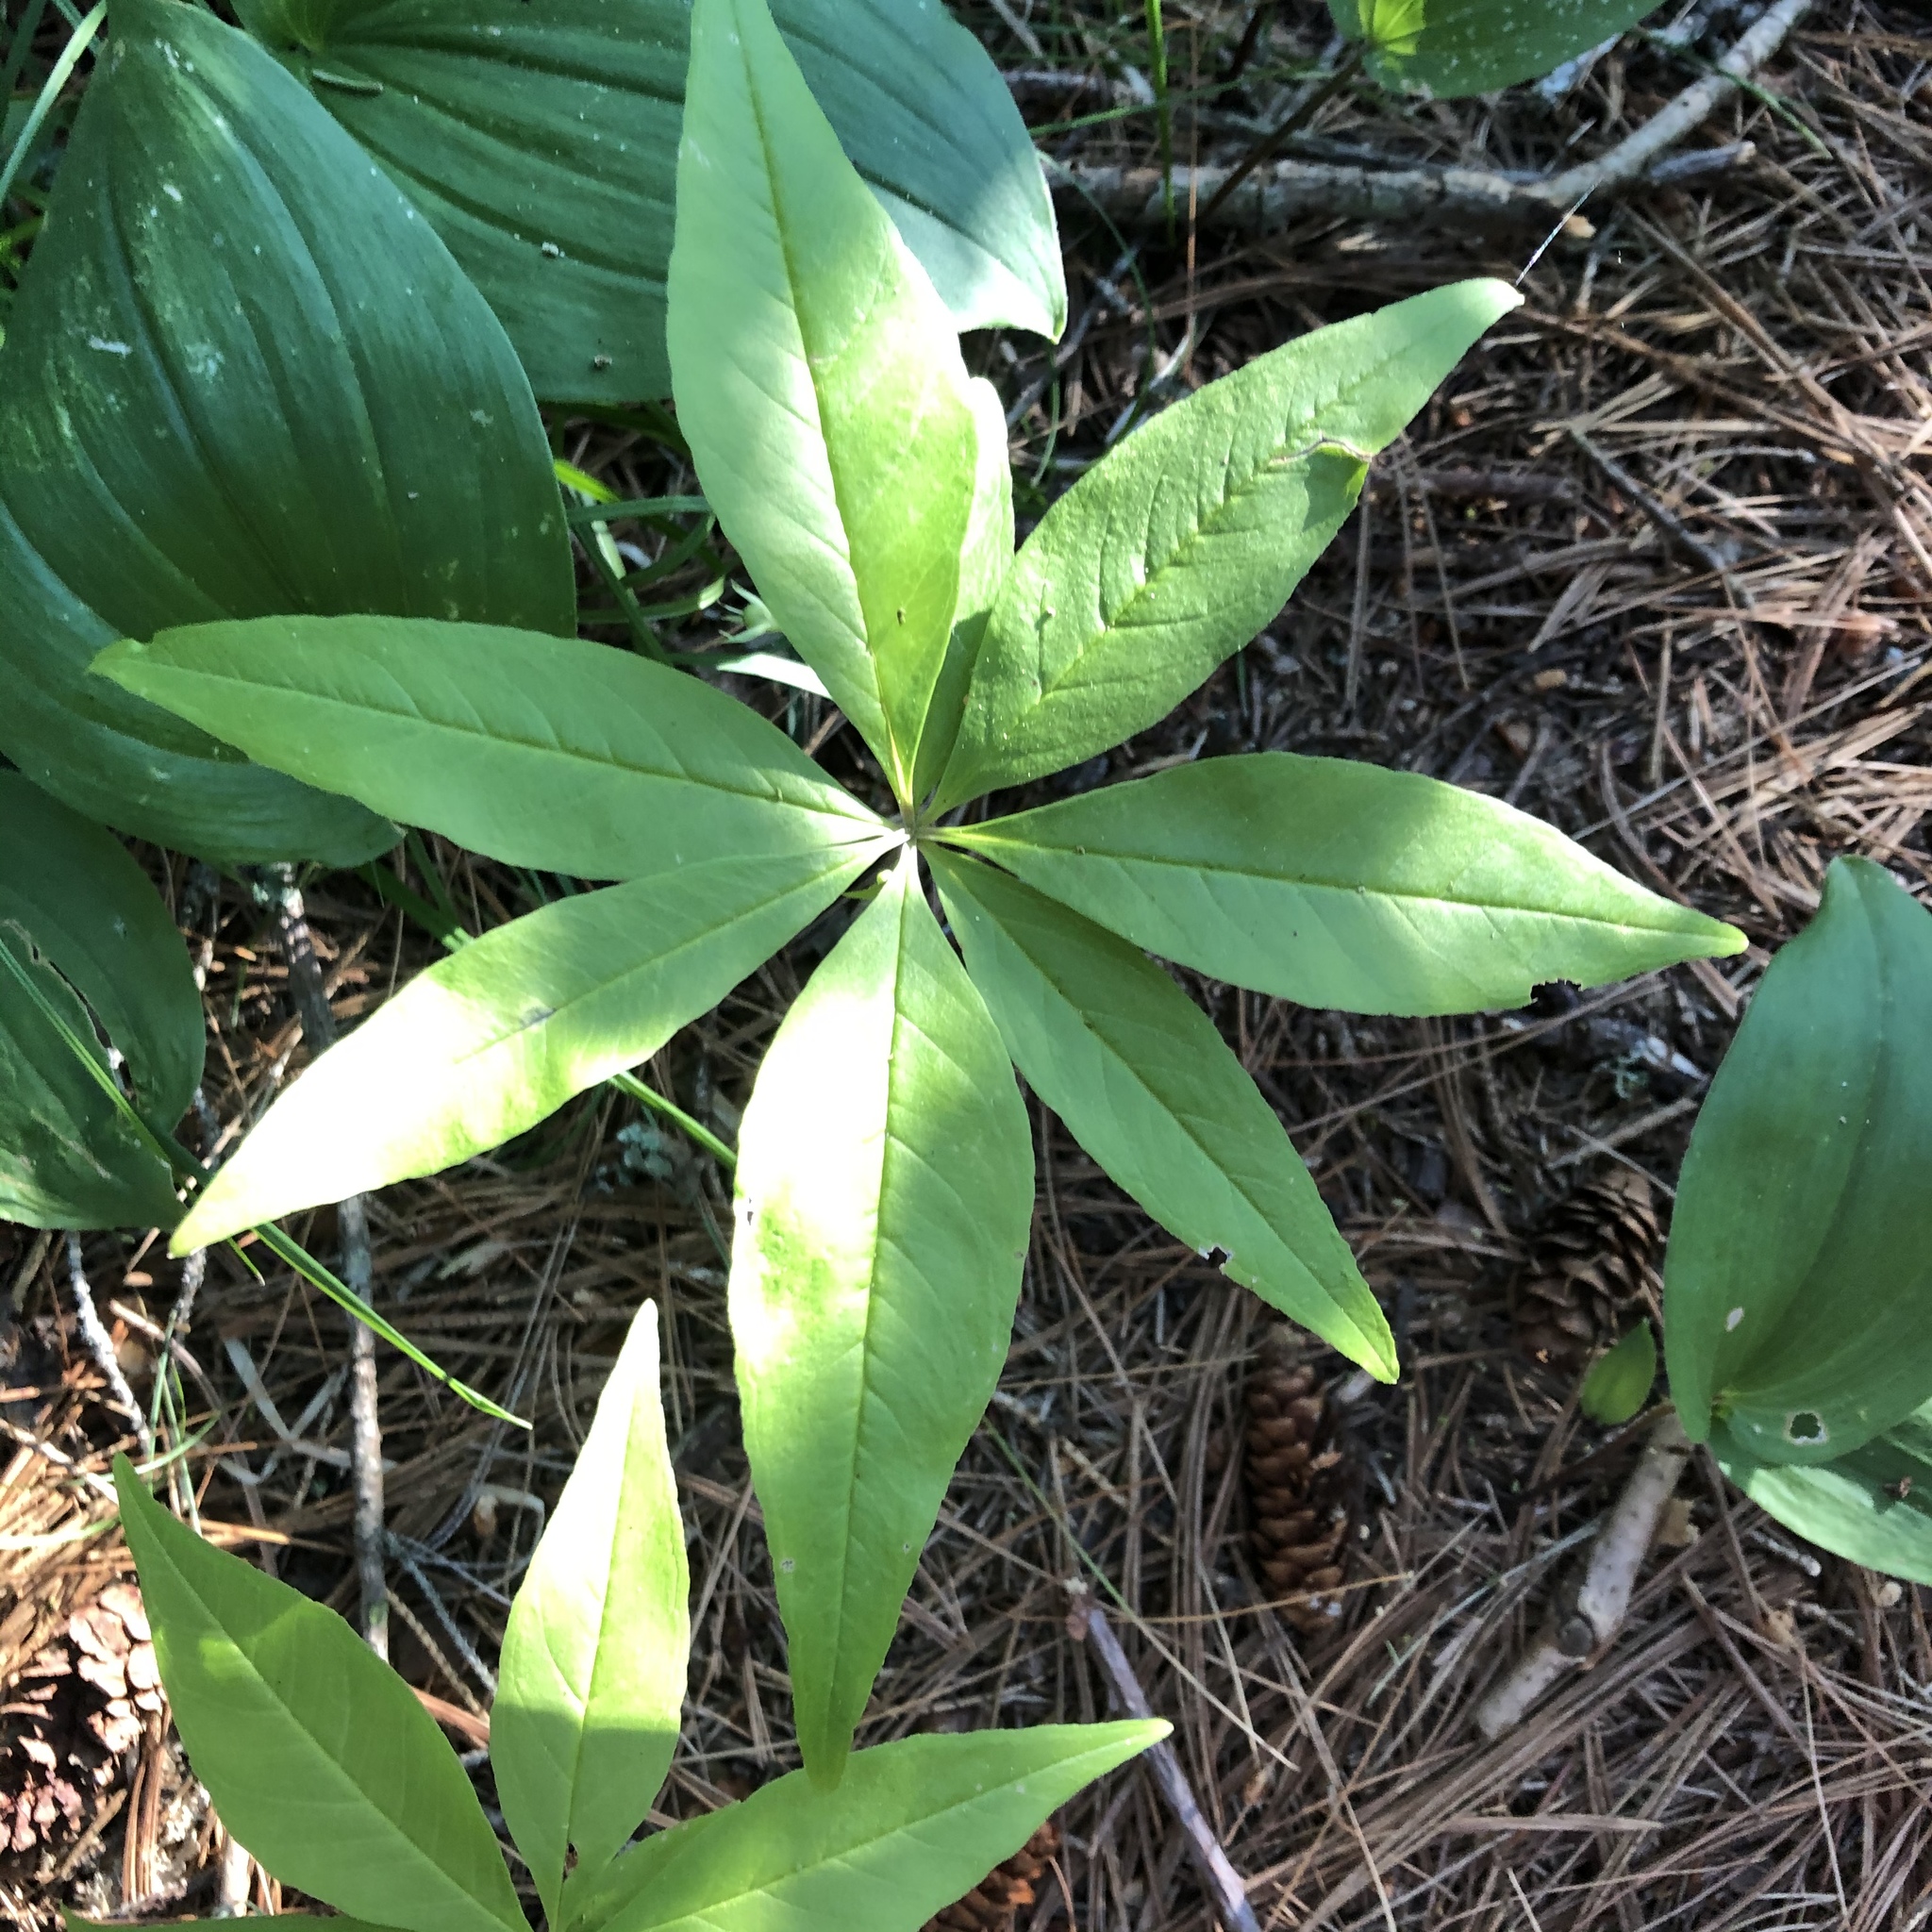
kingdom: Plantae
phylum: Tracheophyta
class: Magnoliopsida
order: Ericales
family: Primulaceae
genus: Lysimachia
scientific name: Lysimachia borealis
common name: American starflower
